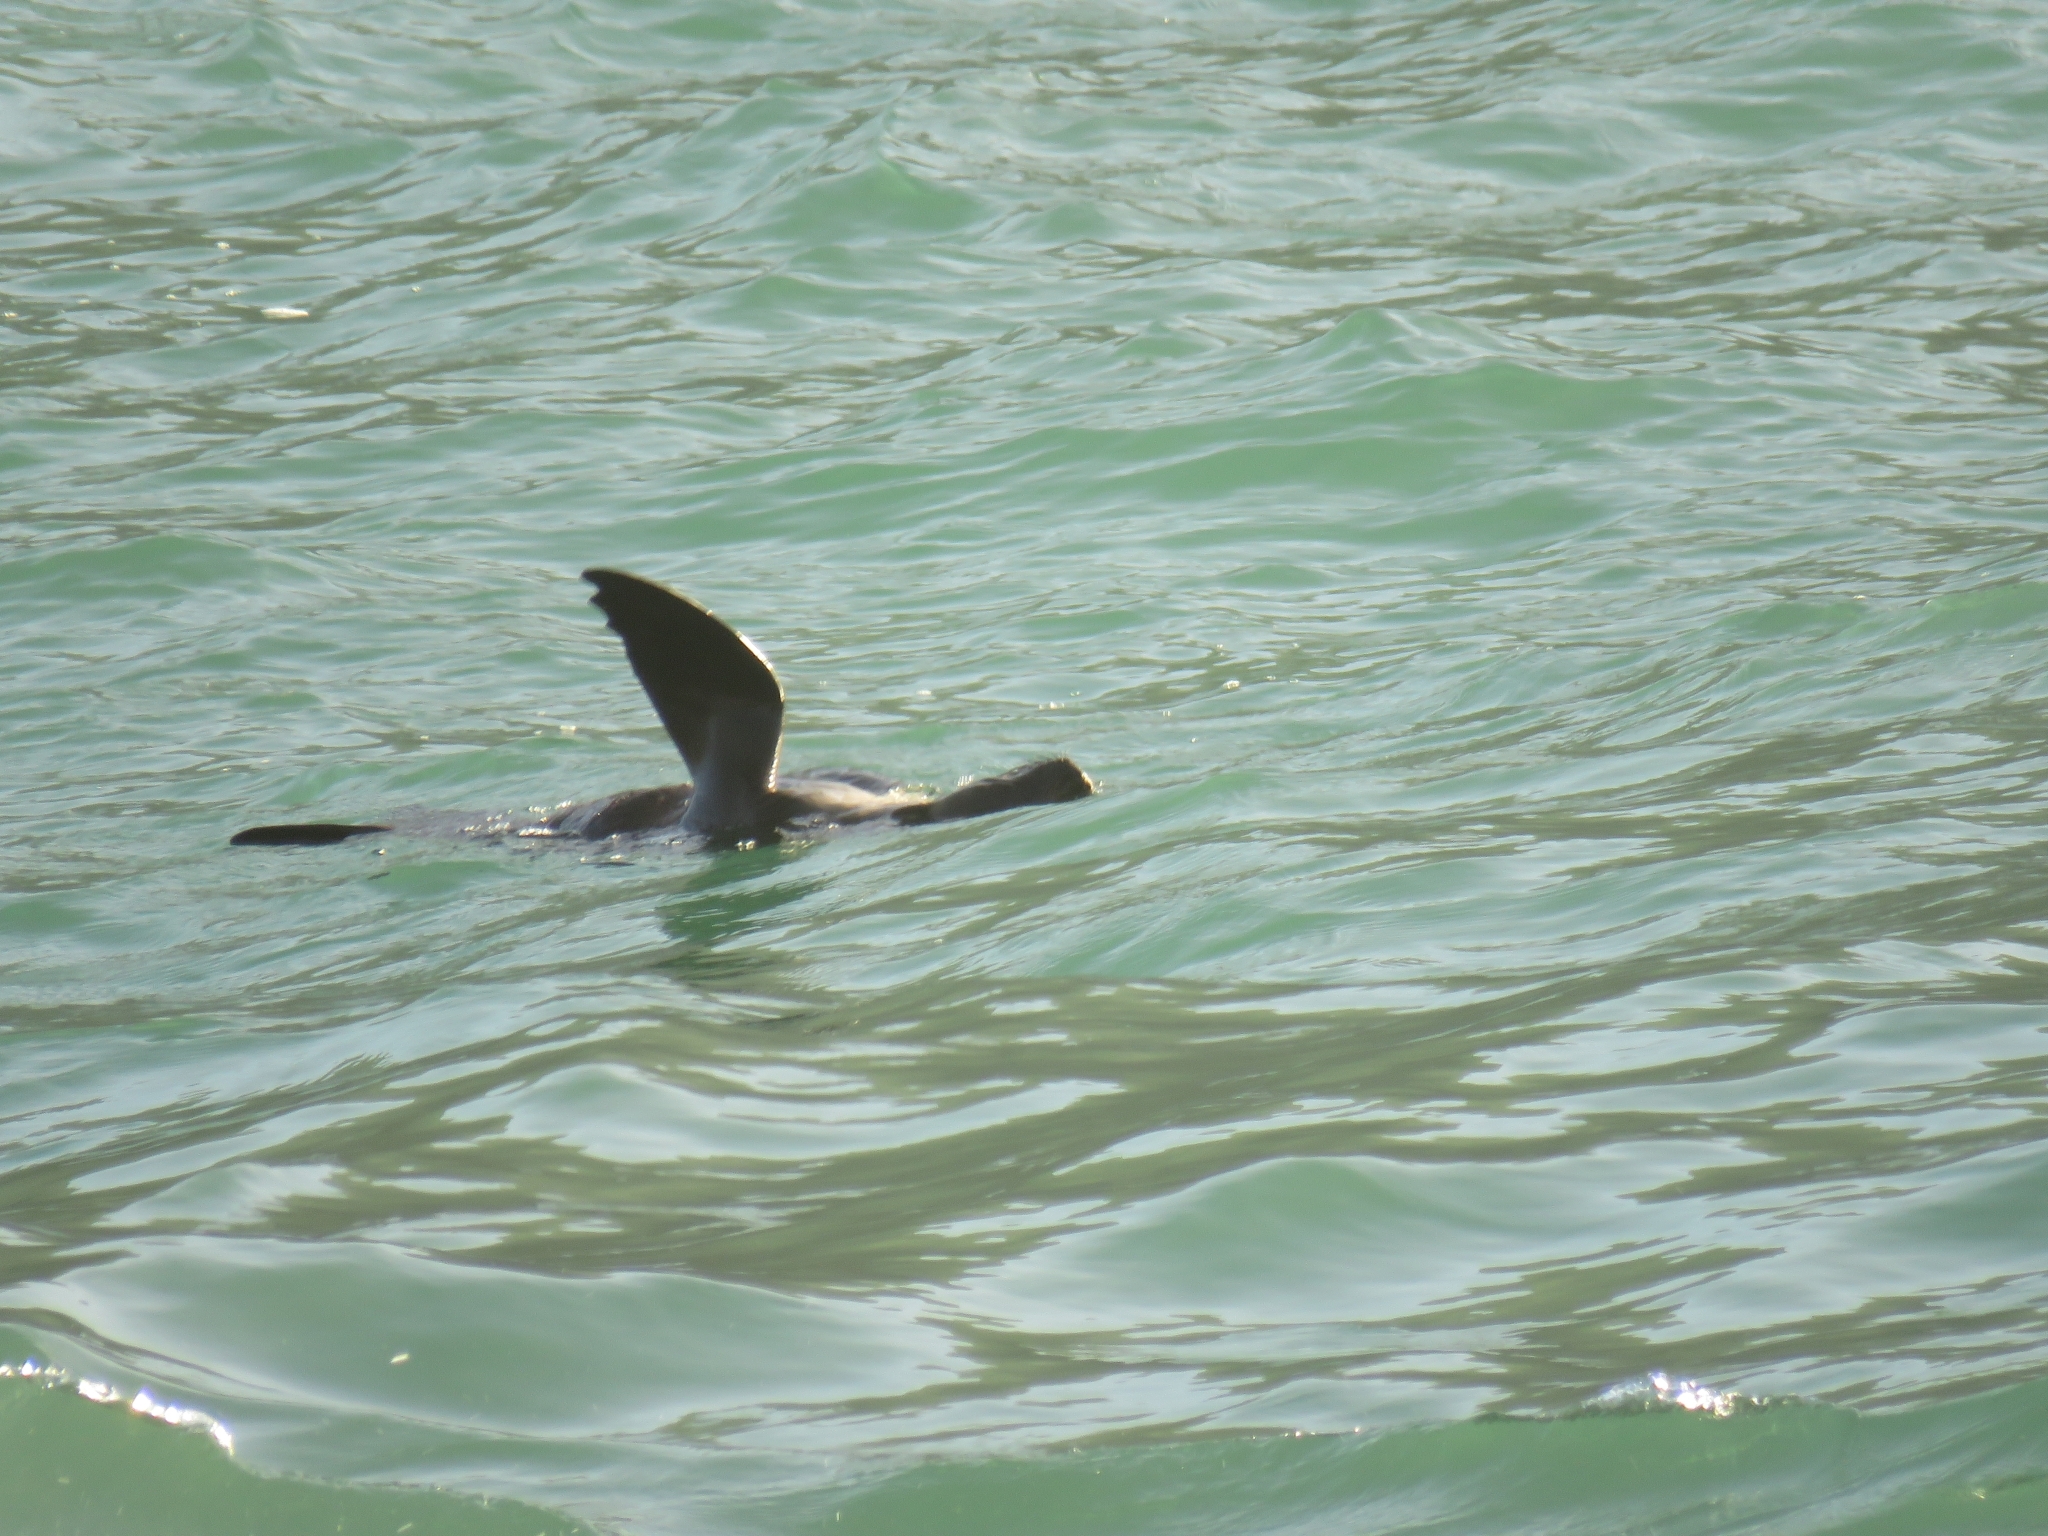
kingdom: Animalia
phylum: Chordata
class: Mammalia
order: Carnivora
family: Otariidae
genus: Arctocephalus
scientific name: Arctocephalus pusillus
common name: Brown fur seal
